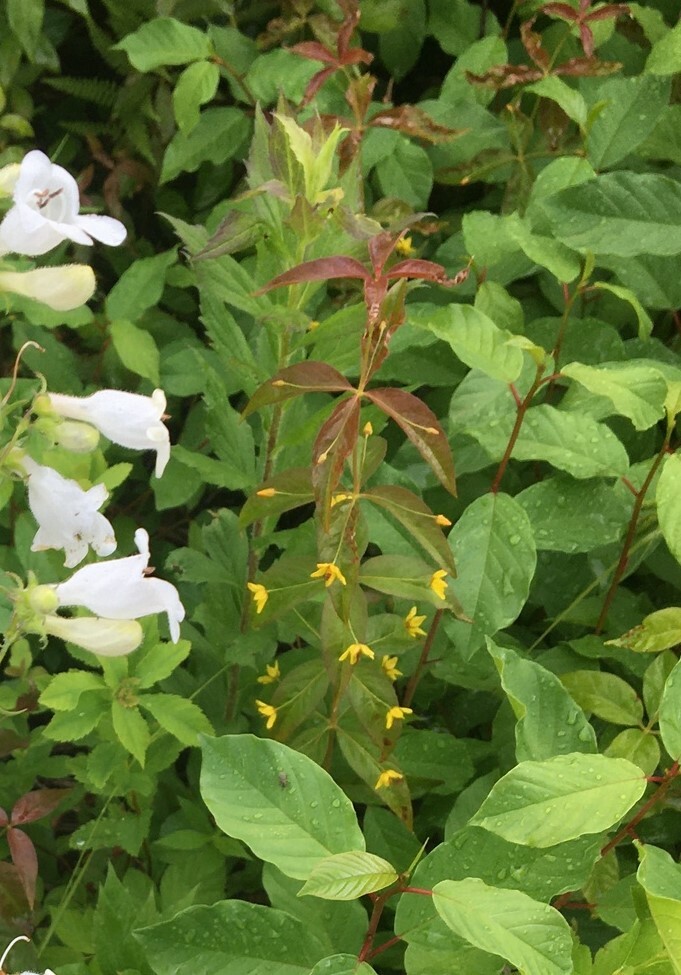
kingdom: Plantae
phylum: Tracheophyta
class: Magnoliopsida
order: Ericales
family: Primulaceae
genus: Lysimachia
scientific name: Lysimachia quadrifolia
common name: Whorled loosestrife
